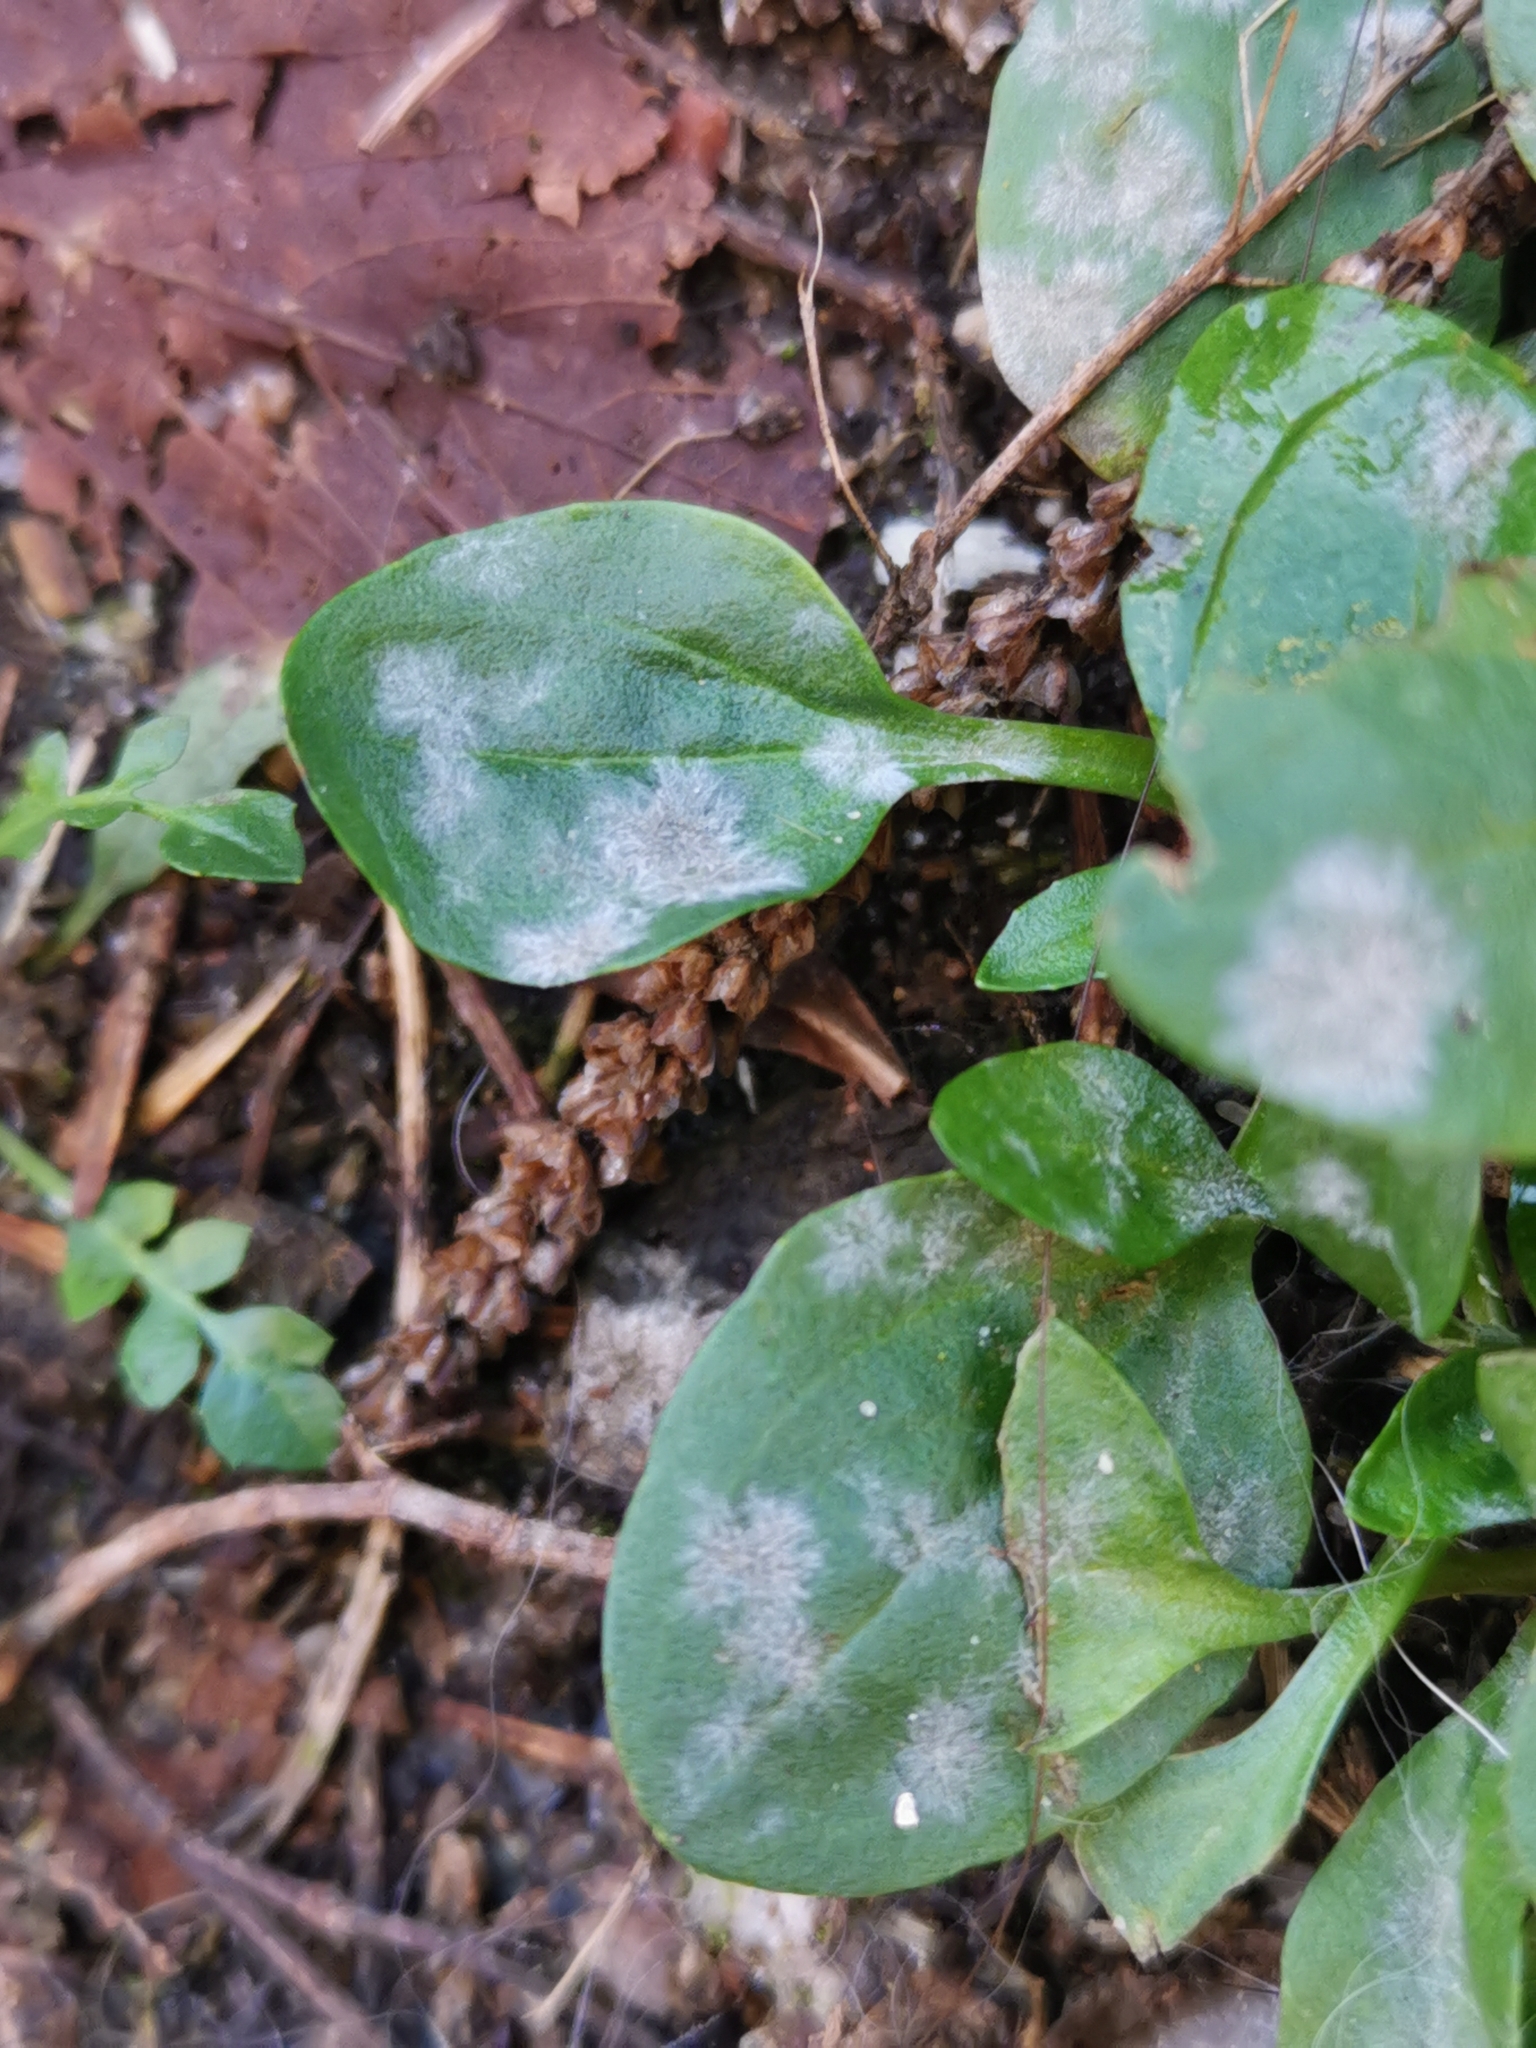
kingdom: Fungi
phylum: Ascomycota
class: Leotiomycetes
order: Helotiales
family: Erysiphaceae
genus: Golovinomyces
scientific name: Golovinomyces sordidus
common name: Plantain mildew
